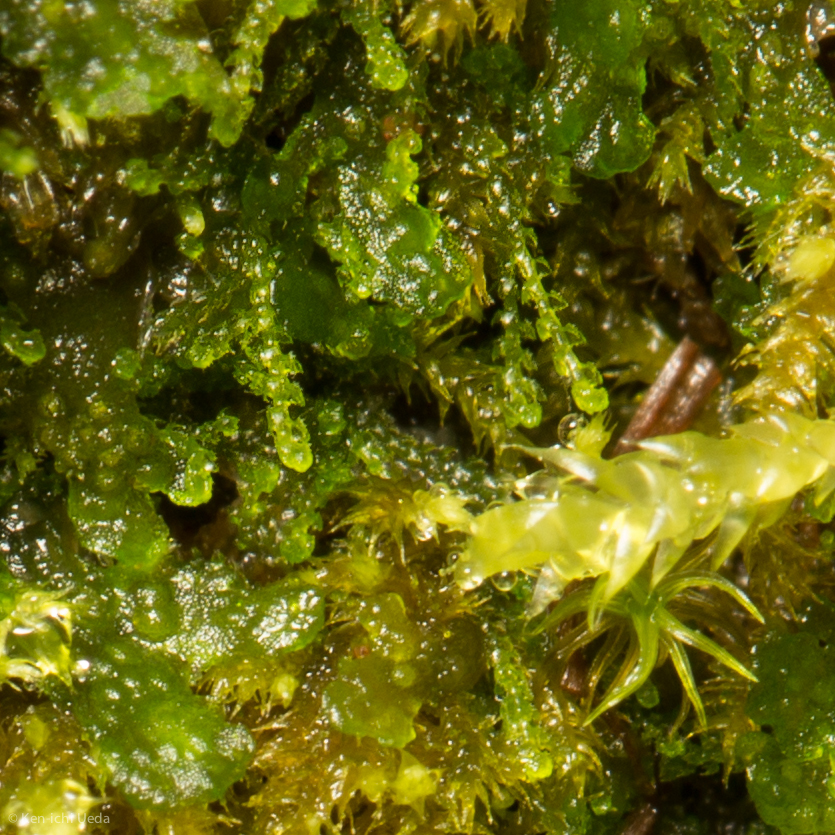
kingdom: Plantae
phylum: Marchantiophyta
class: Jungermanniopsida
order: Jungermanniales
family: Cephaloziellaceae
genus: Cephaloziella
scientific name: Cephaloziella turneri
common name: Turner's threadwort
